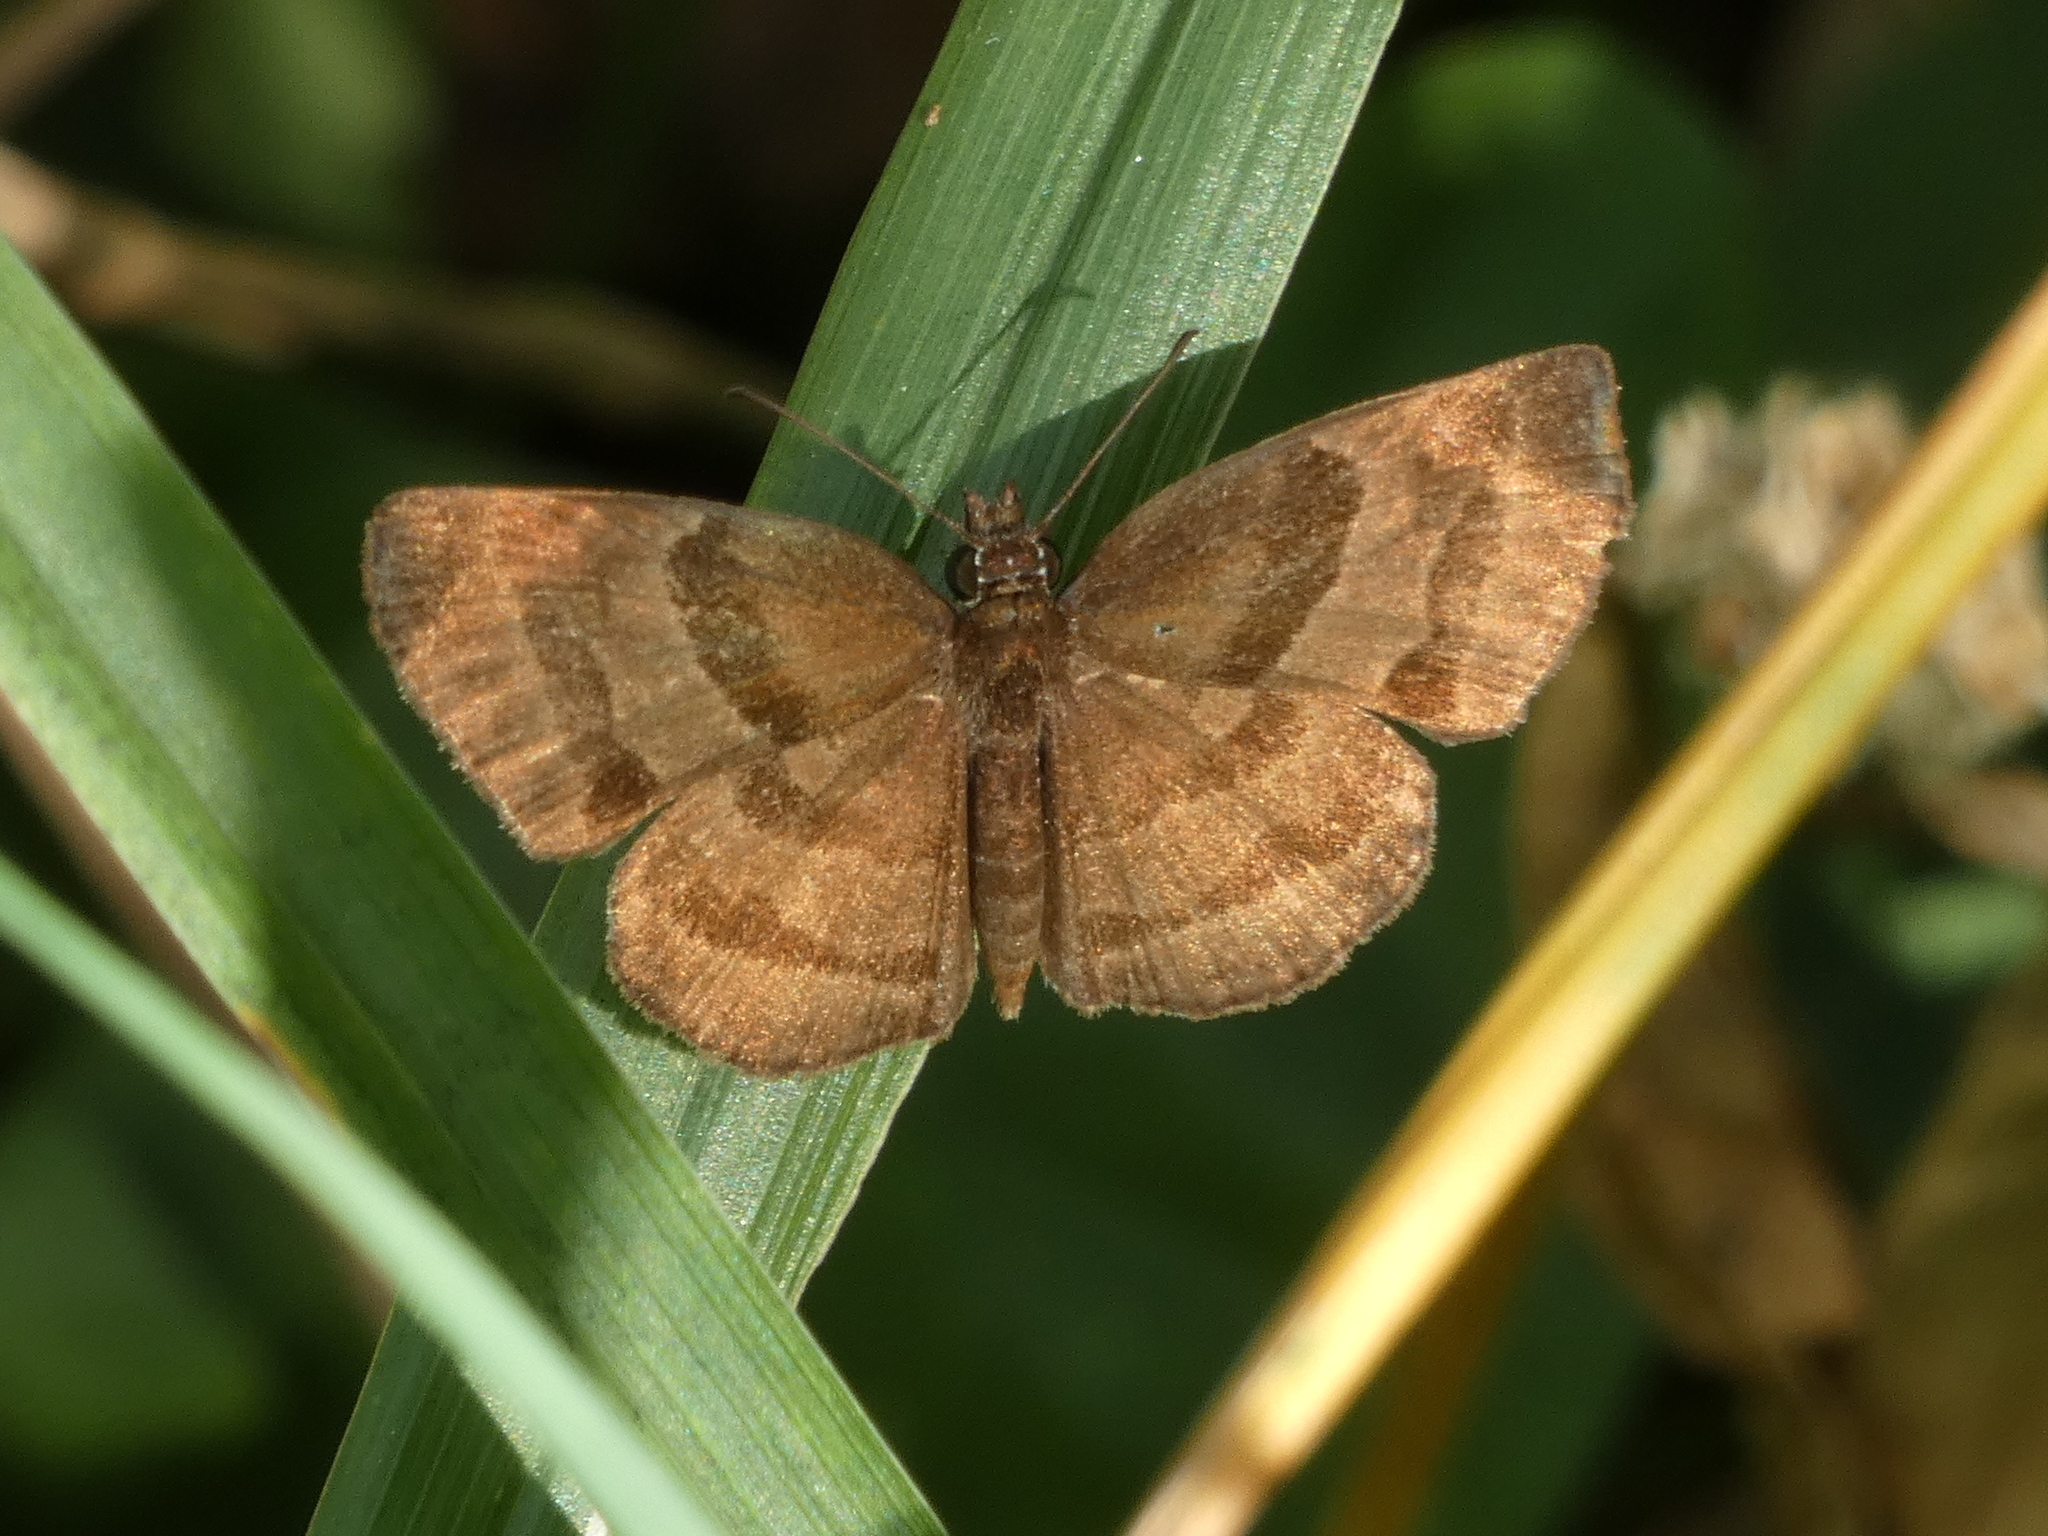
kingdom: Animalia
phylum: Arthropoda
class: Insecta
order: Lepidoptera
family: Hesperiidae
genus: Trina
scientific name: Trina geometrina
